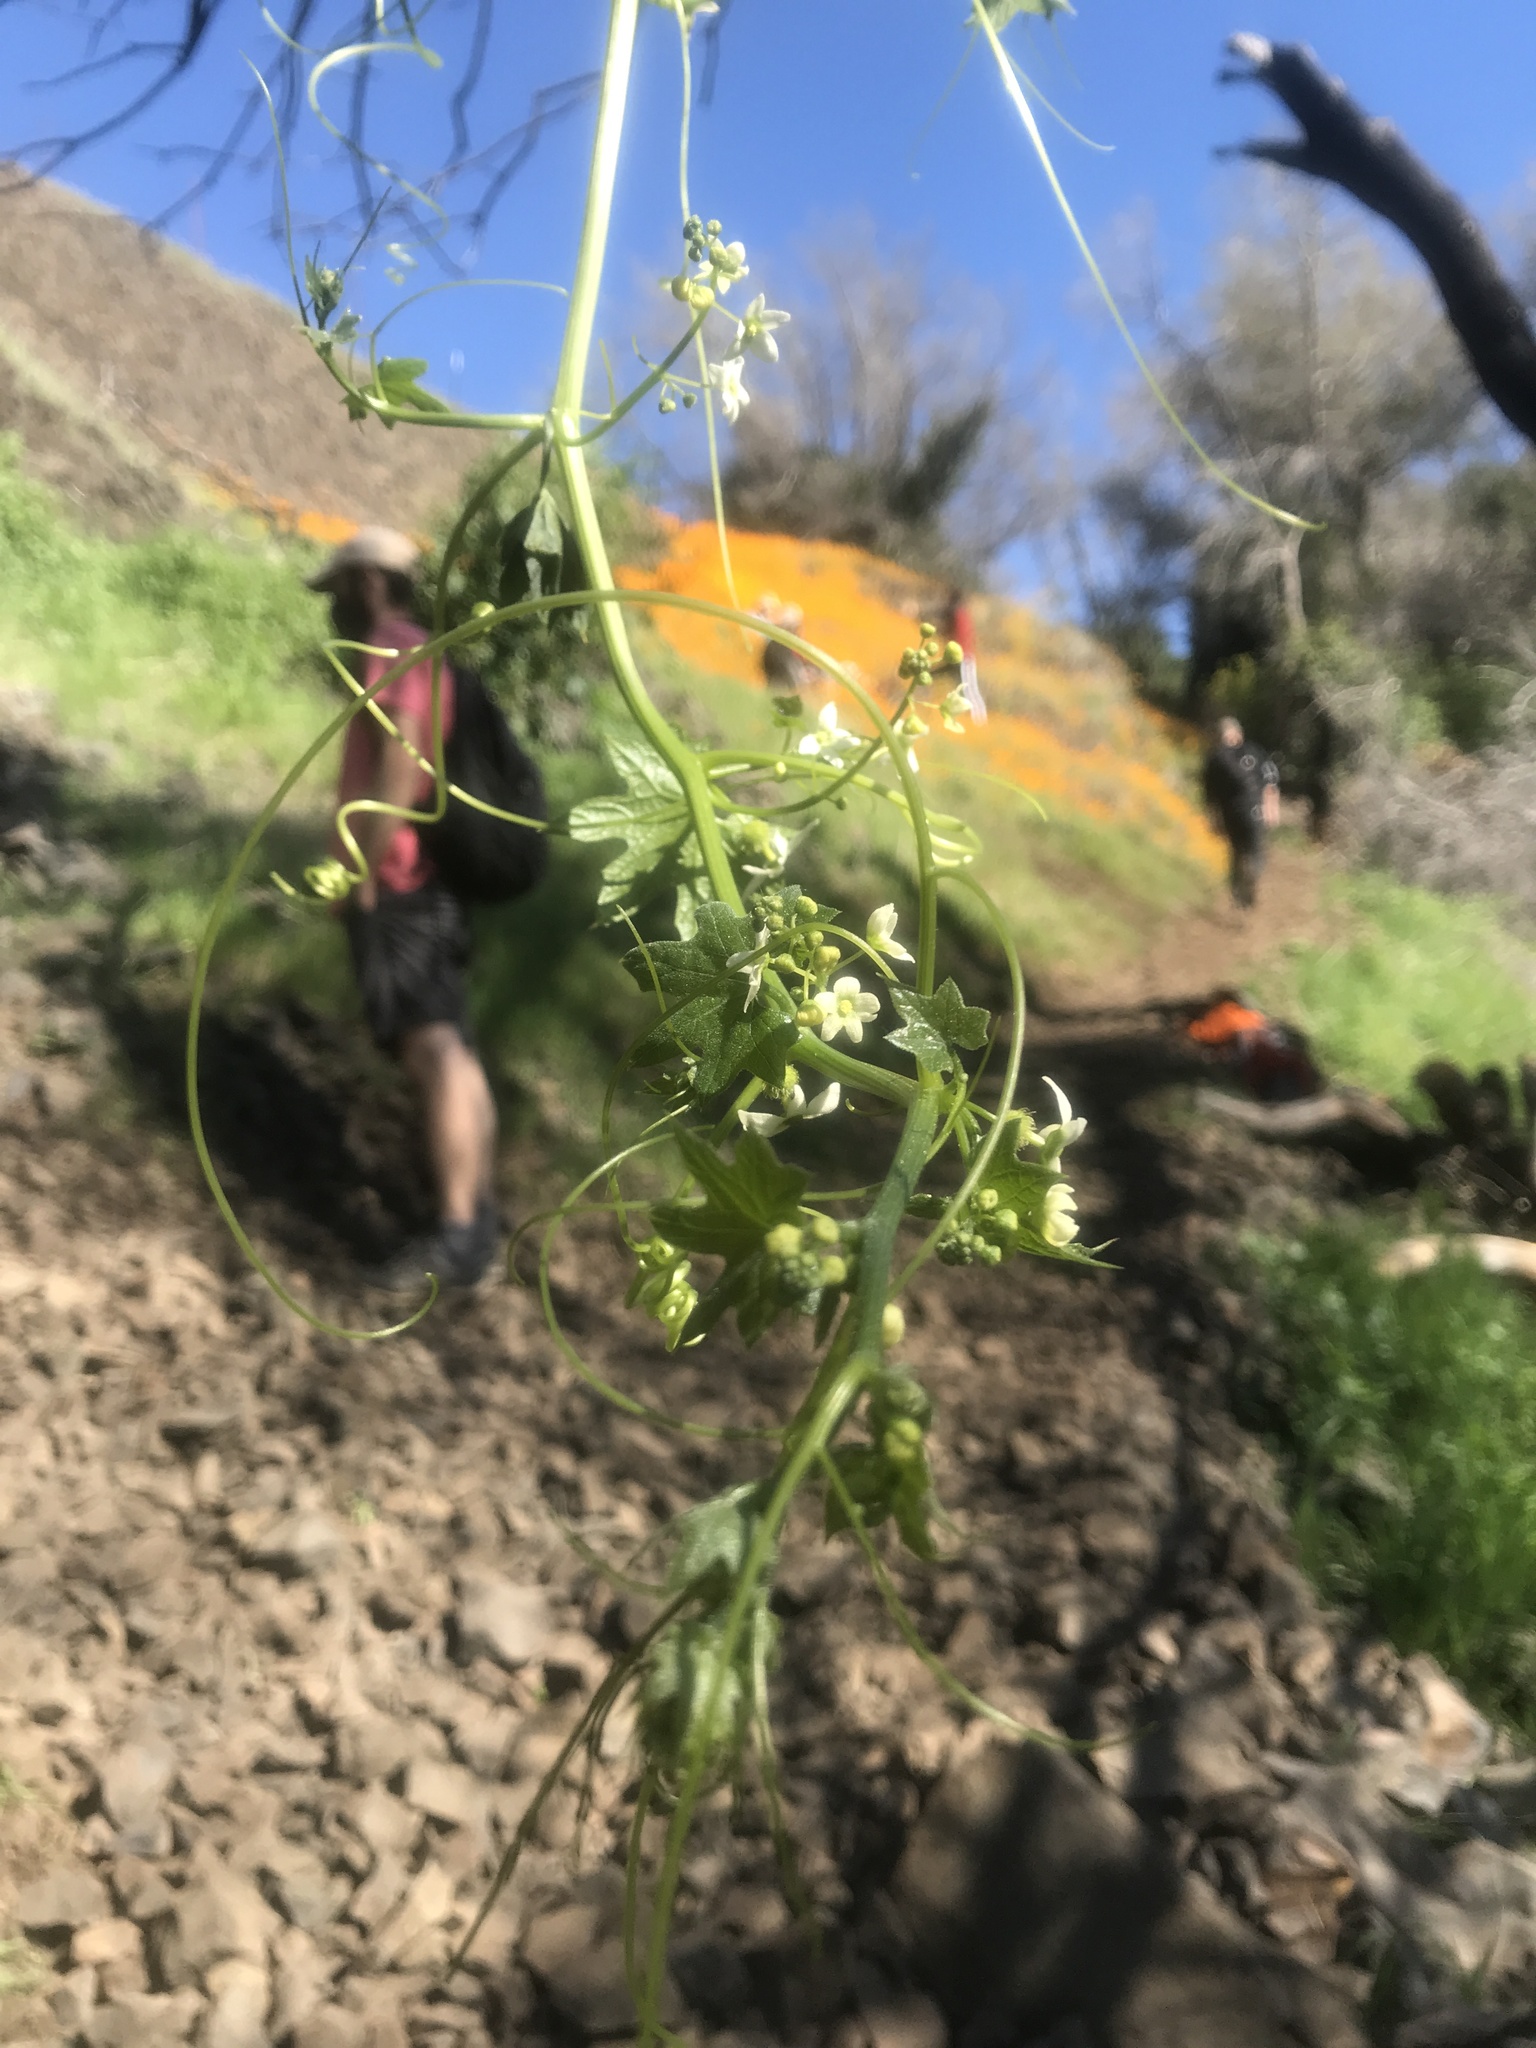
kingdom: Plantae
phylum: Tracheophyta
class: Magnoliopsida
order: Cucurbitales
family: Cucurbitaceae
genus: Marah
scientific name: Marah fabacea
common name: California manroot
